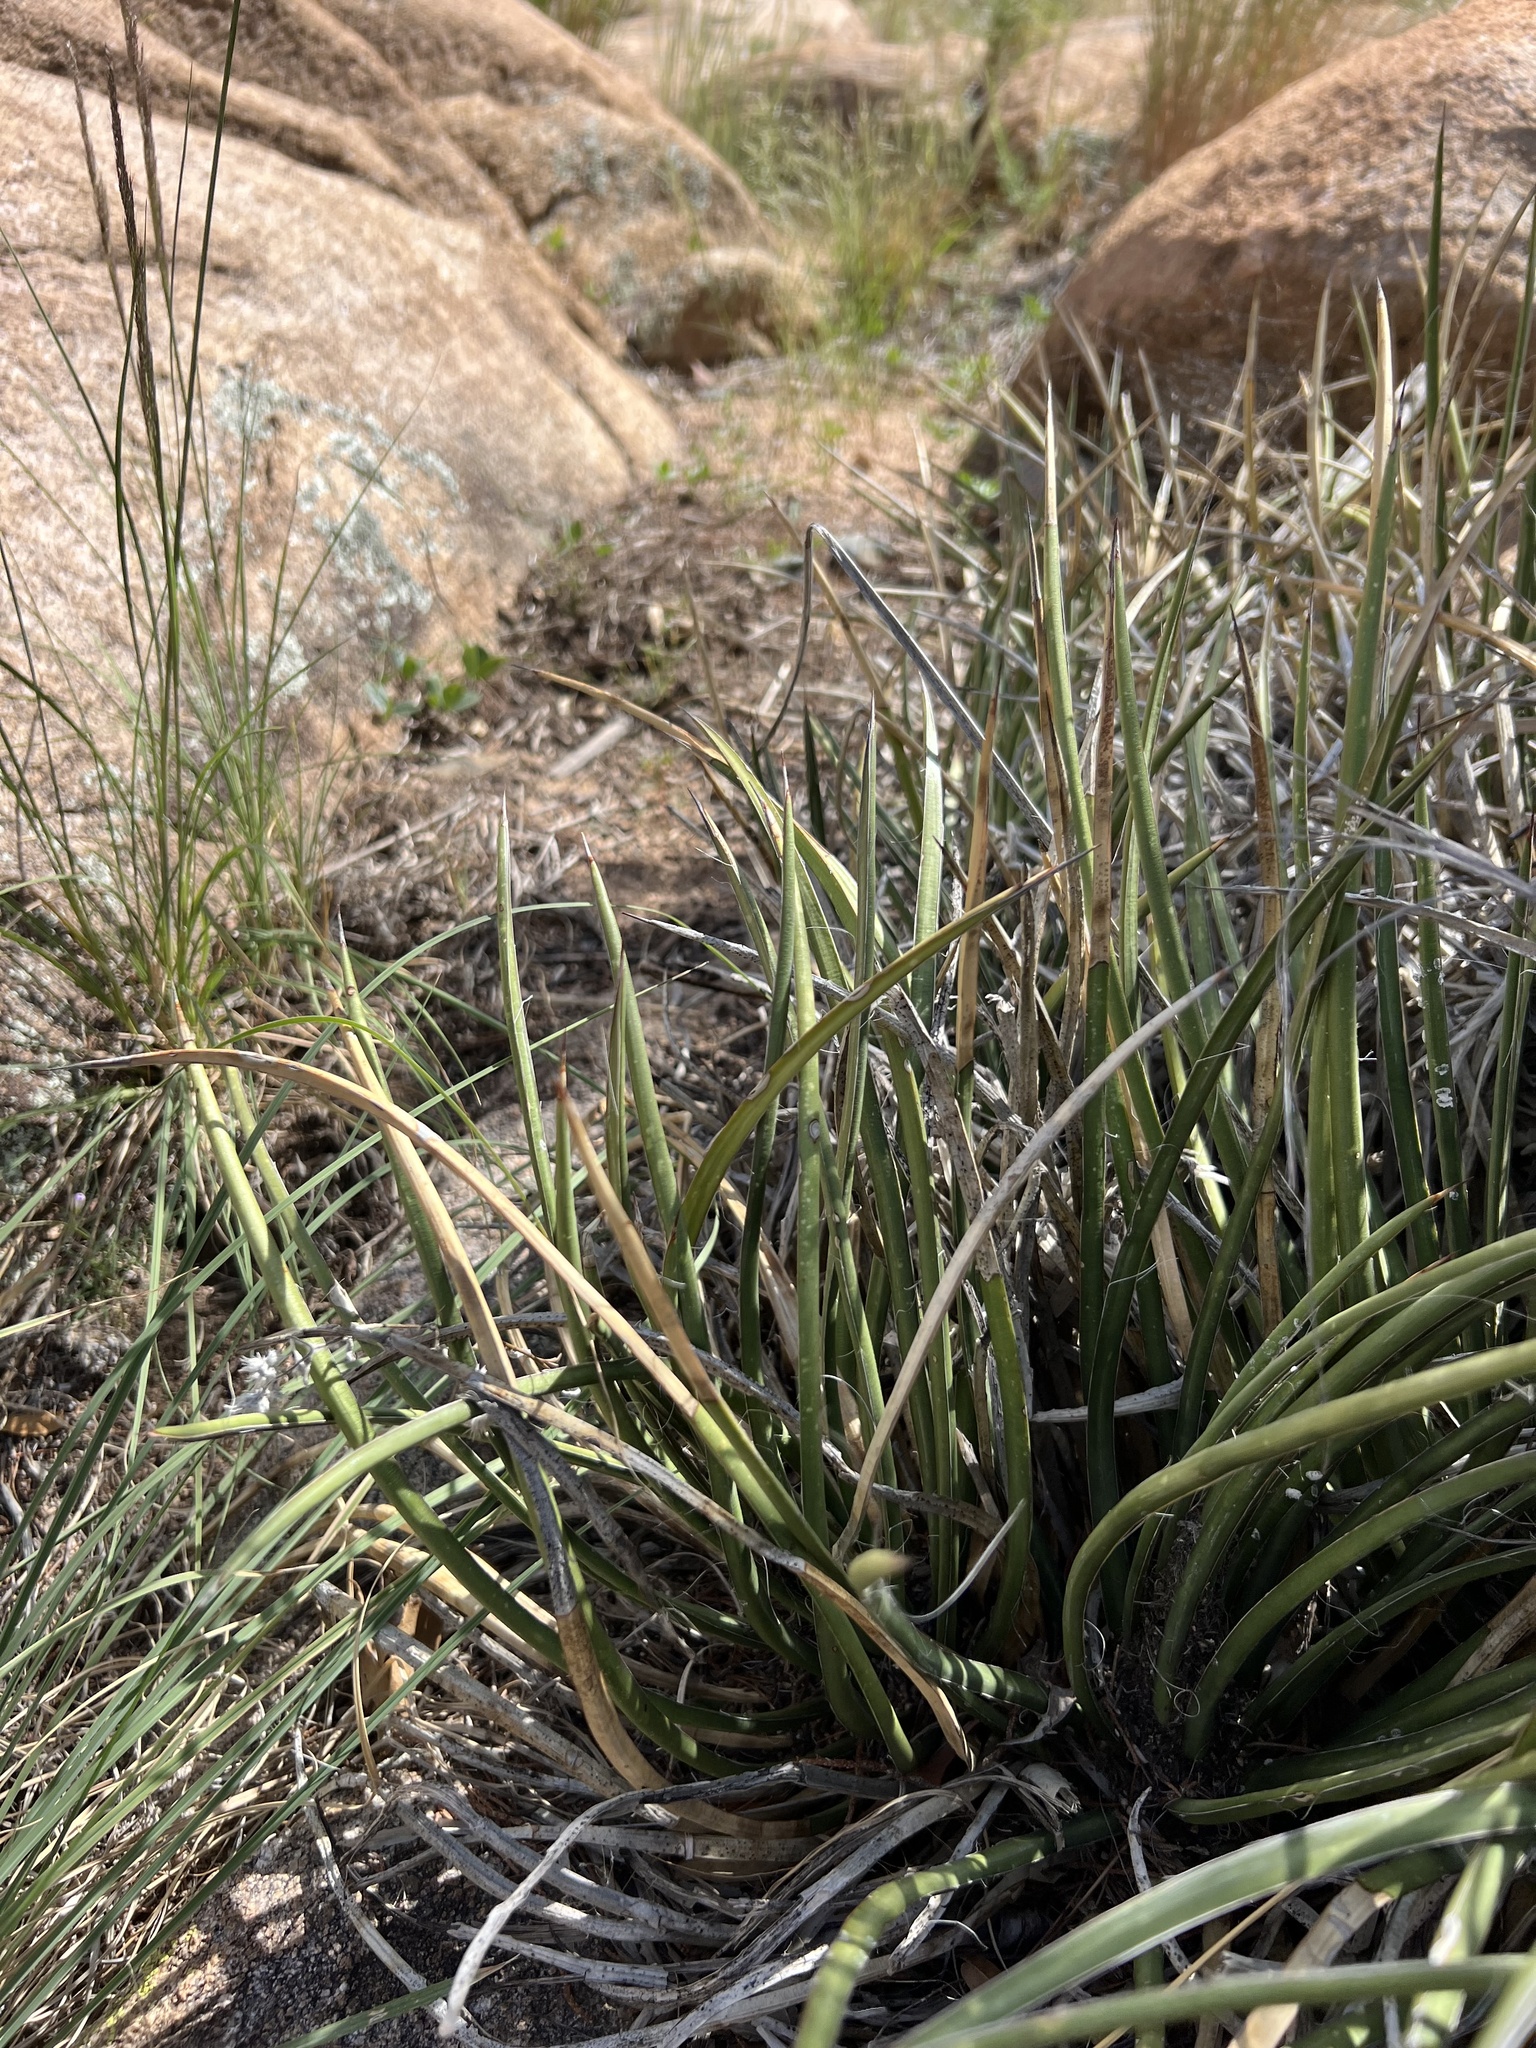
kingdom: Plantae
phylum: Tracheophyta
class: Liliopsida
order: Asparagales
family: Asparagaceae
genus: Agave
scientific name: Agave schottii
